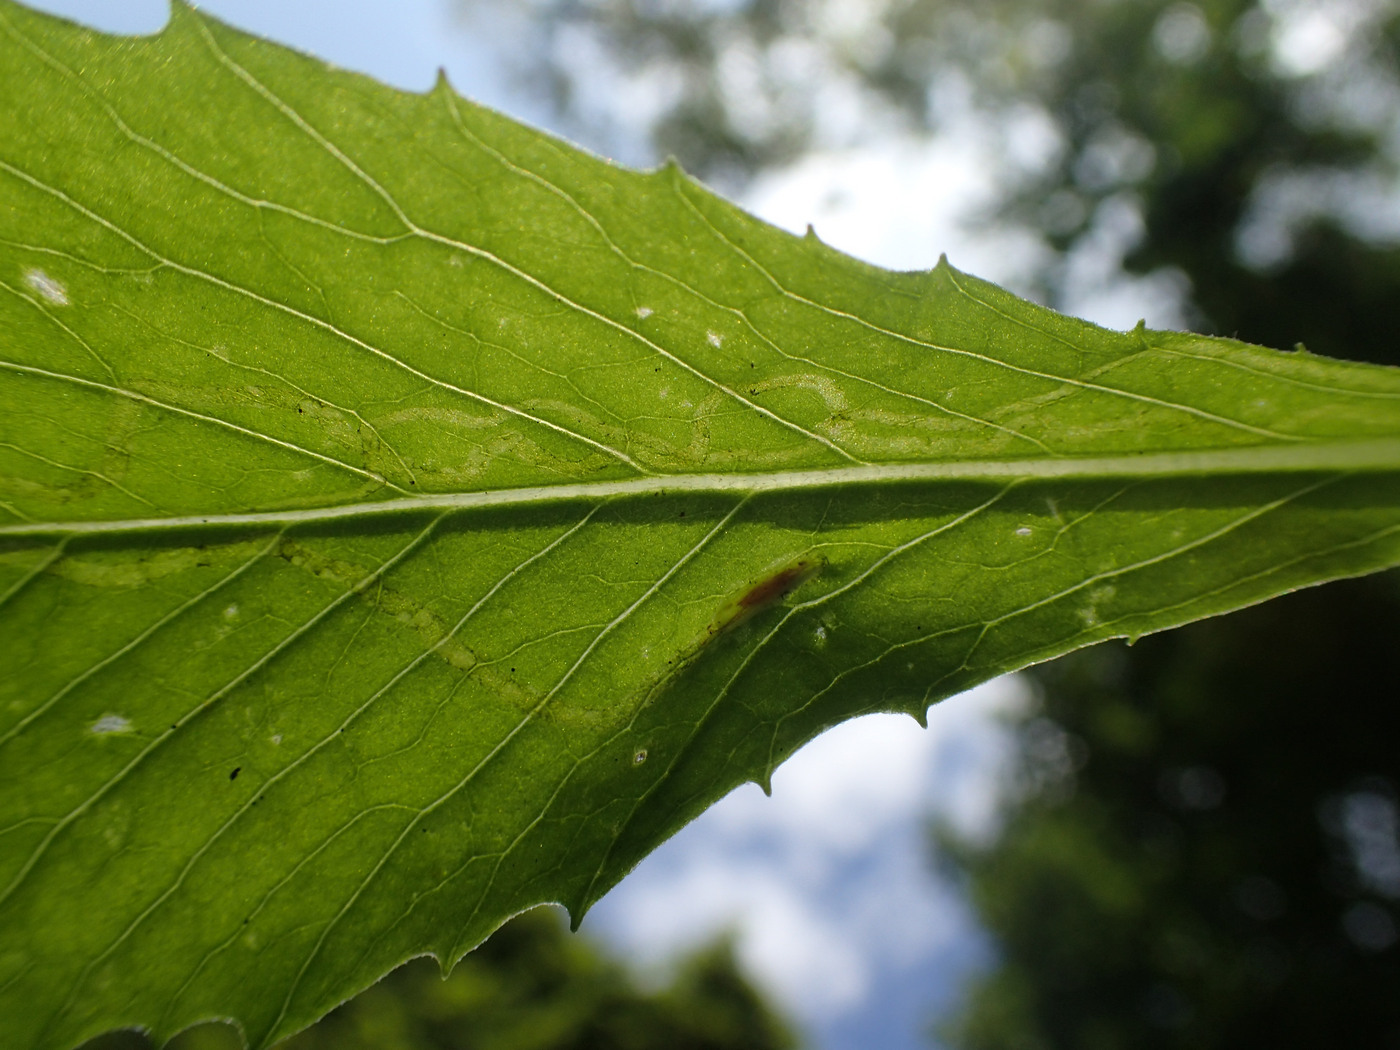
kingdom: Animalia
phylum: Arthropoda
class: Insecta
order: Lepidoptera
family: Gracillariidae
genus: Phyllocnistis
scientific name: Phyllocnistis insignis
